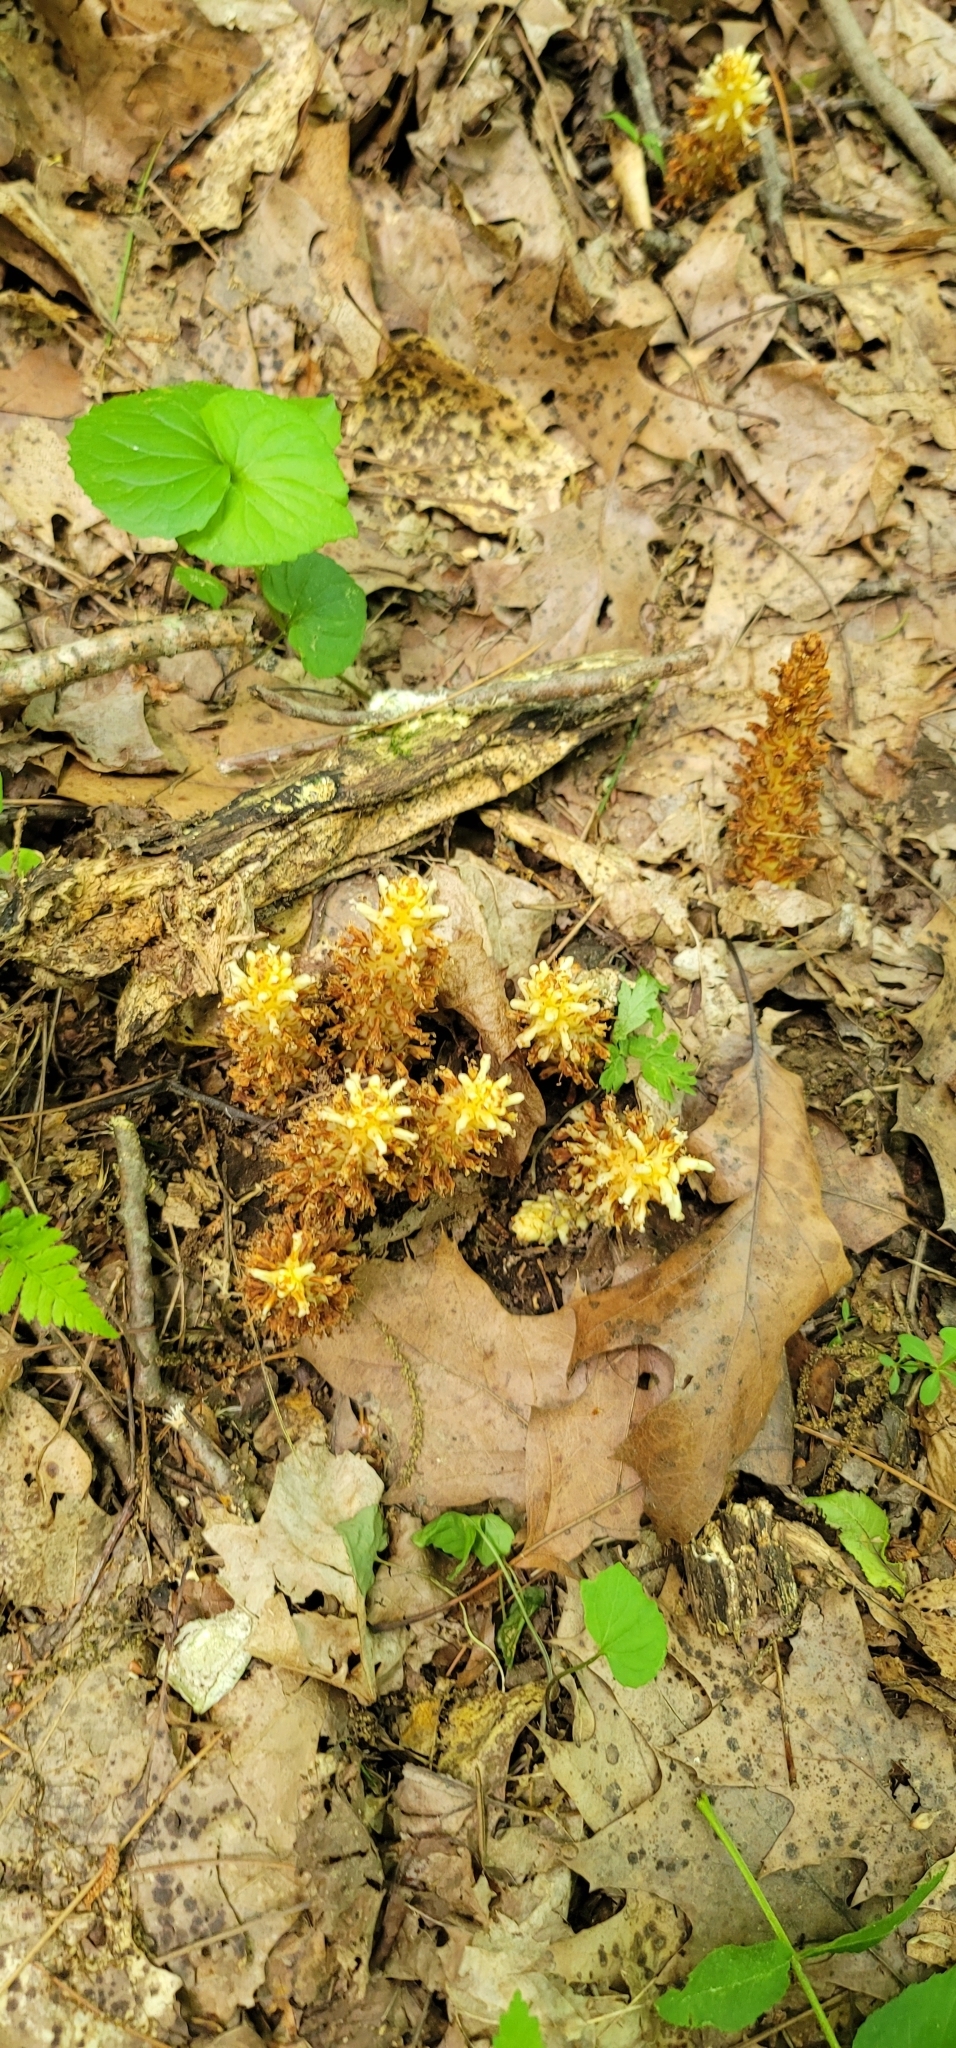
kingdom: Plantae
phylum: Tracheophyta
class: Magnoliopsida
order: Lamiales
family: Orobanchaceae
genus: Conopholis
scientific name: Conopholis americana
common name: American cancer-root
